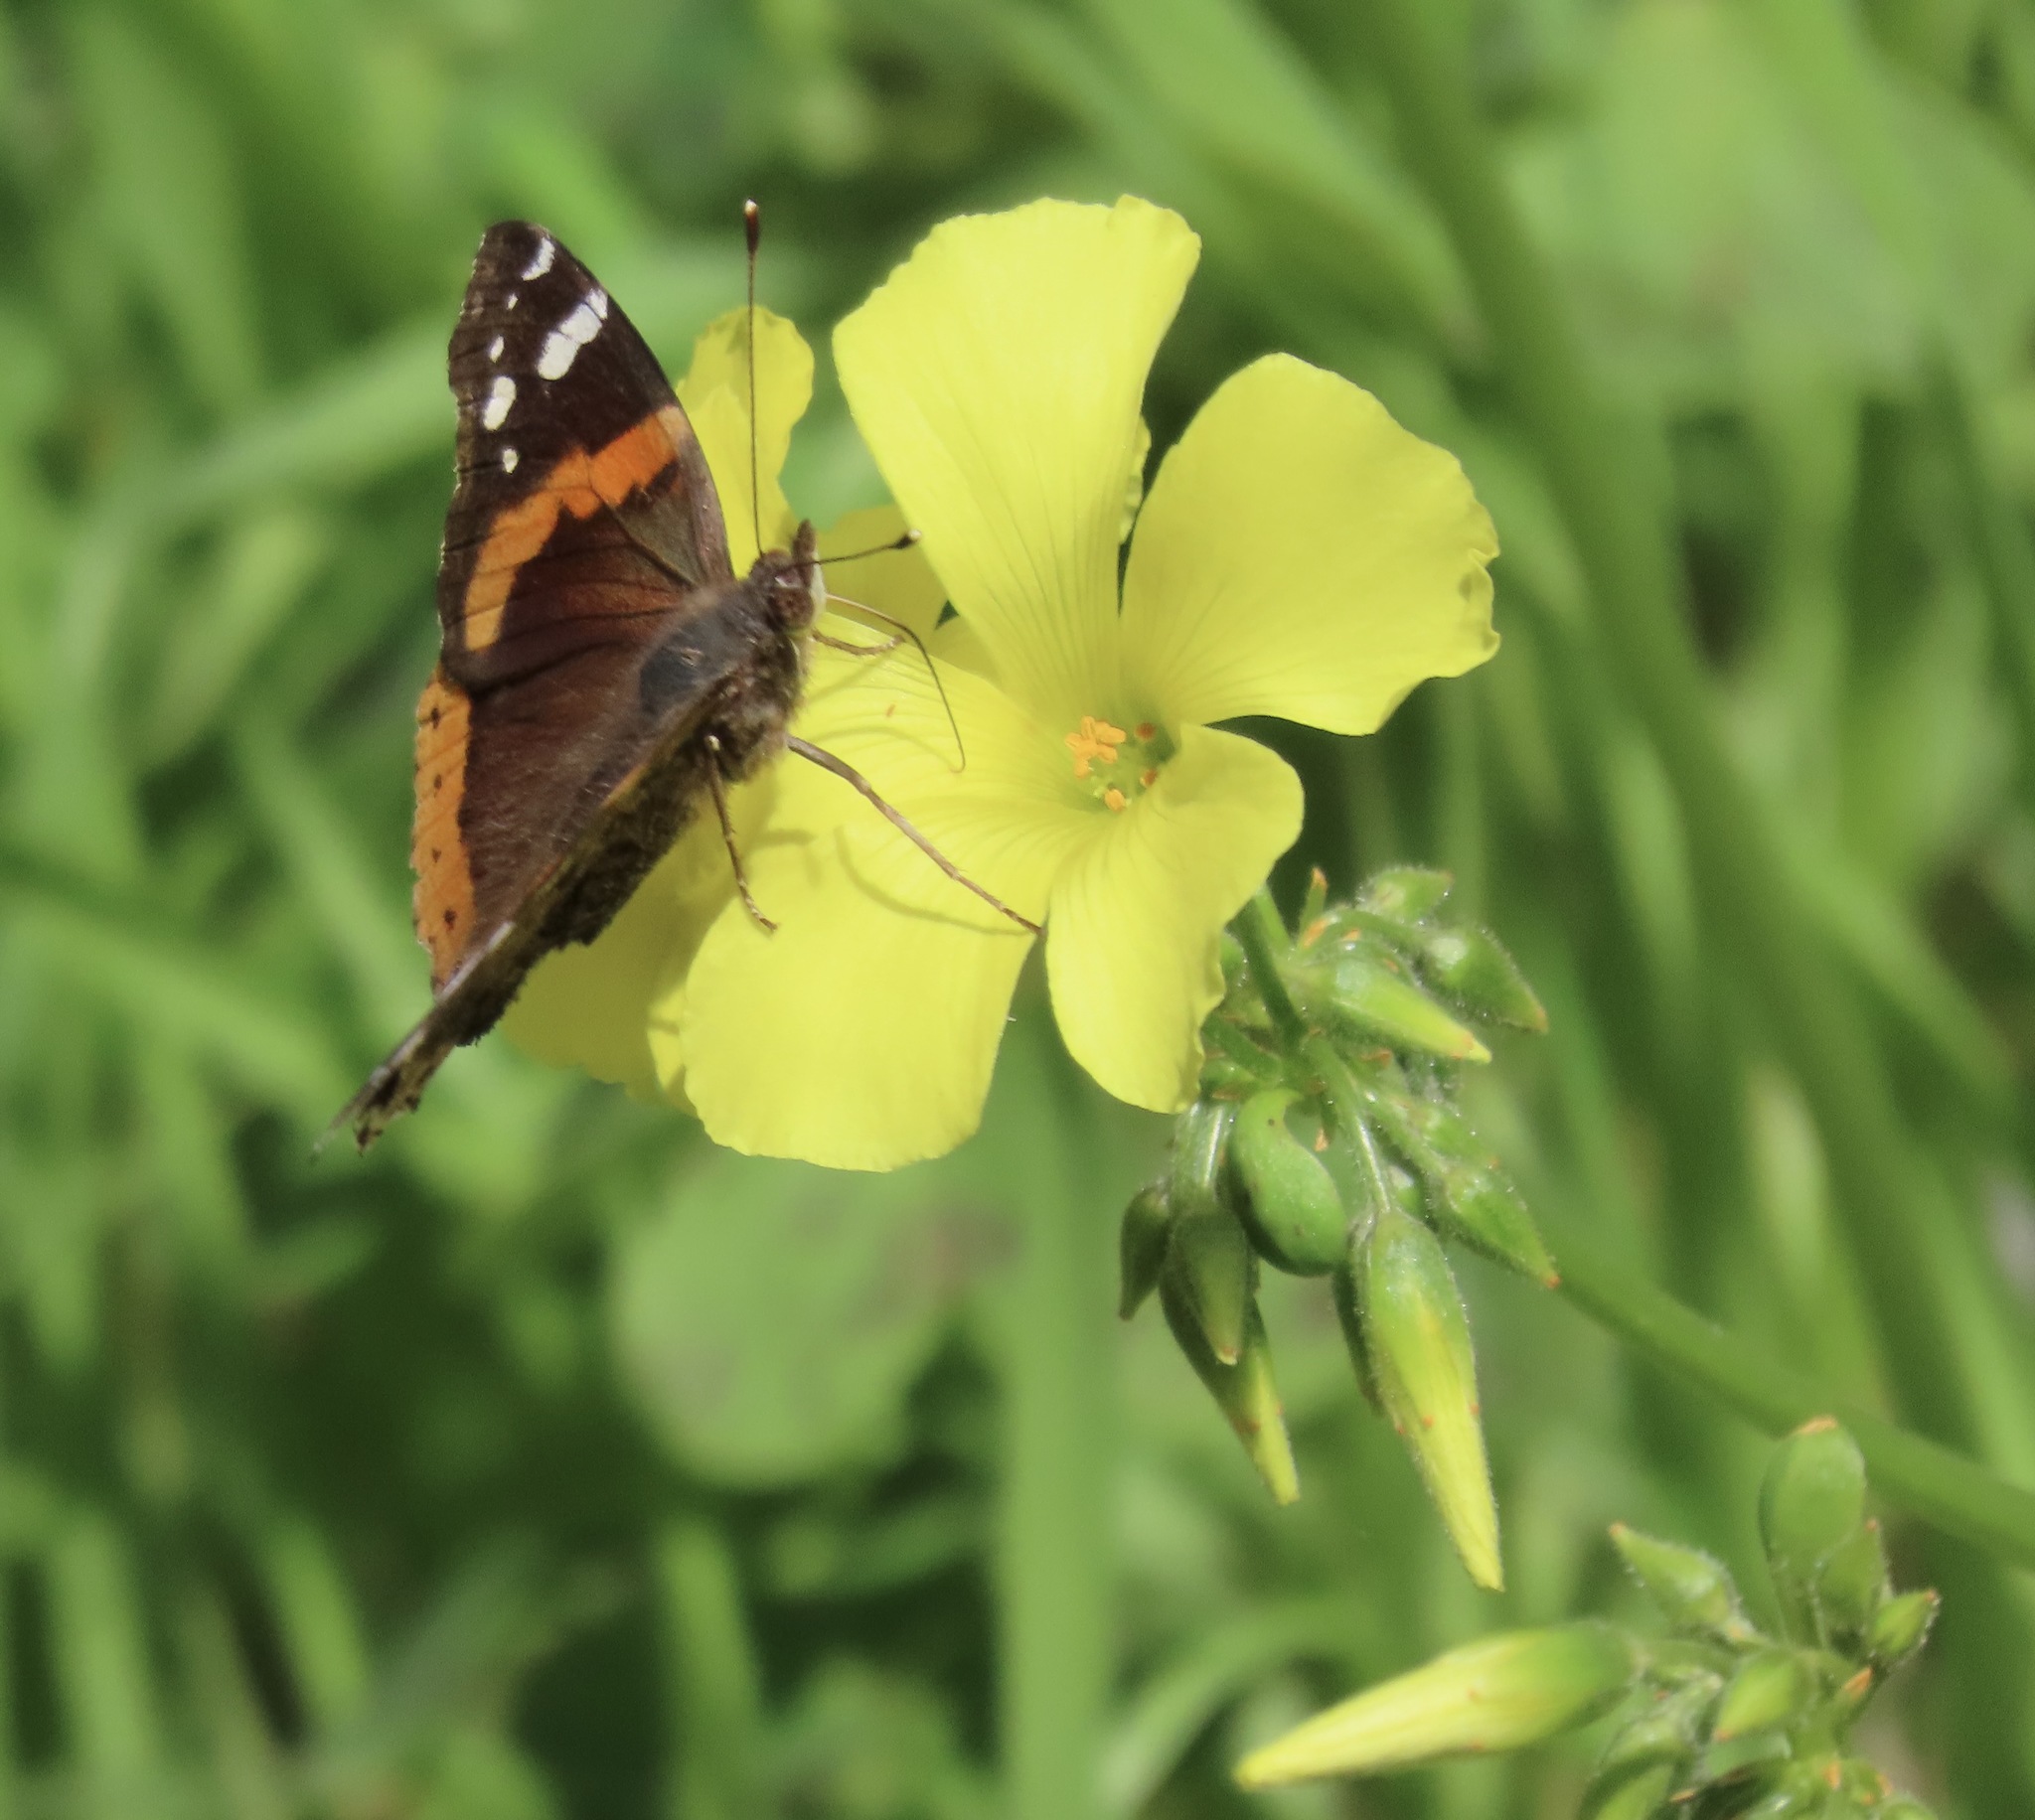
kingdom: Animalia
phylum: Arthropoda
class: Insecta
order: Lepidoptera
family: Nymphalidae
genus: Vanessa
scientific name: Vanessa atalanta
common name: Red admiral
